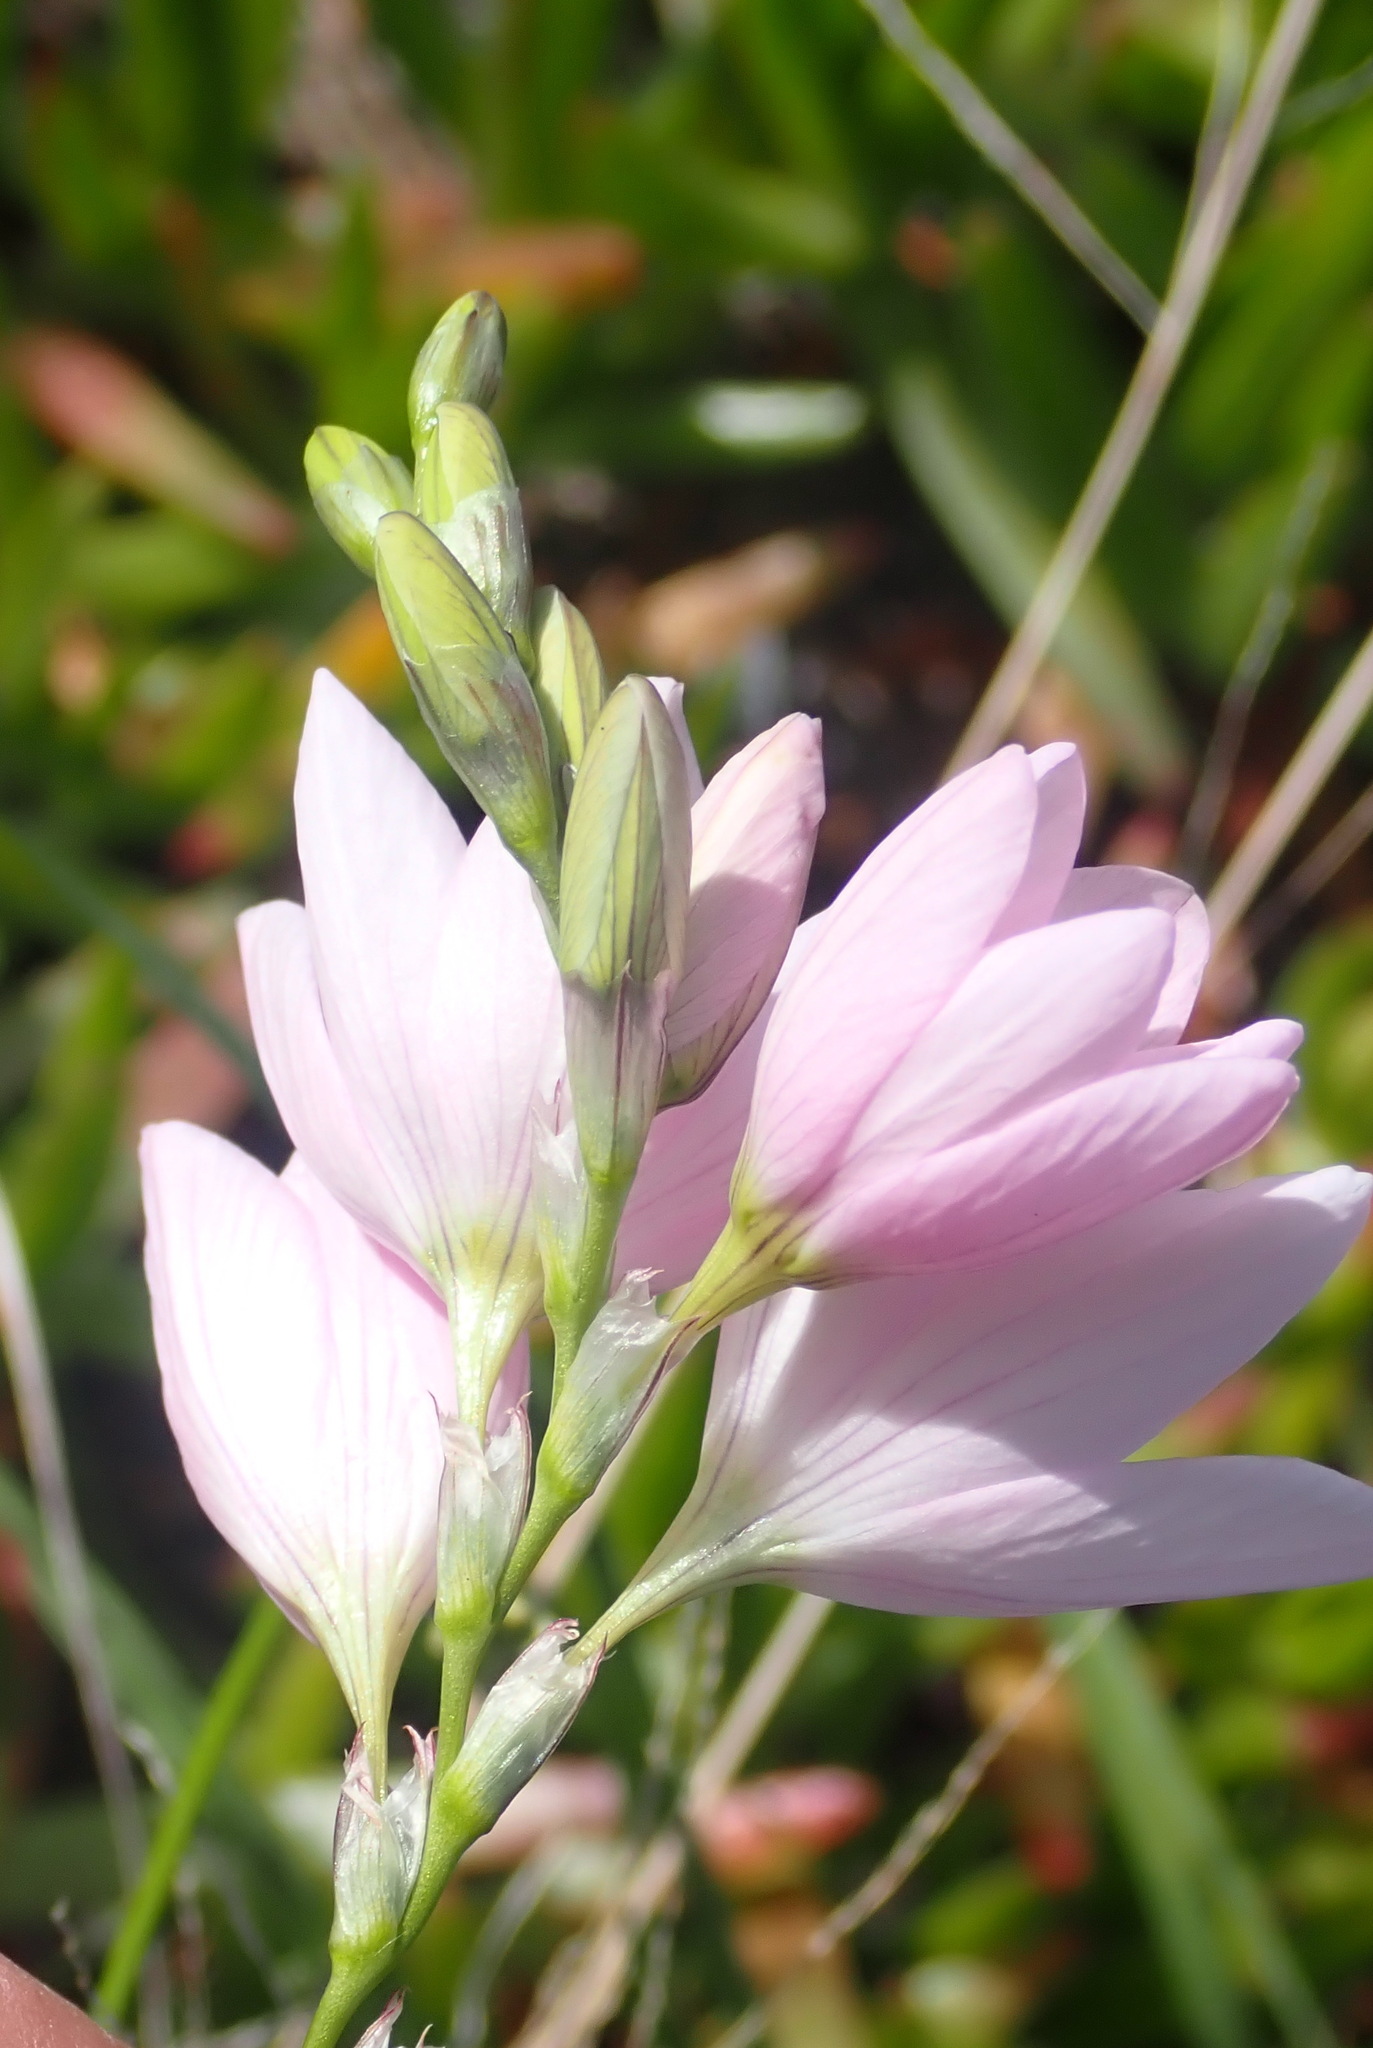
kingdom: Plantae
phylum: Tracheophyta
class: Liliopsida
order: Asparagales
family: Iridaceae
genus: Ixia
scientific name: Ixia orientalis
